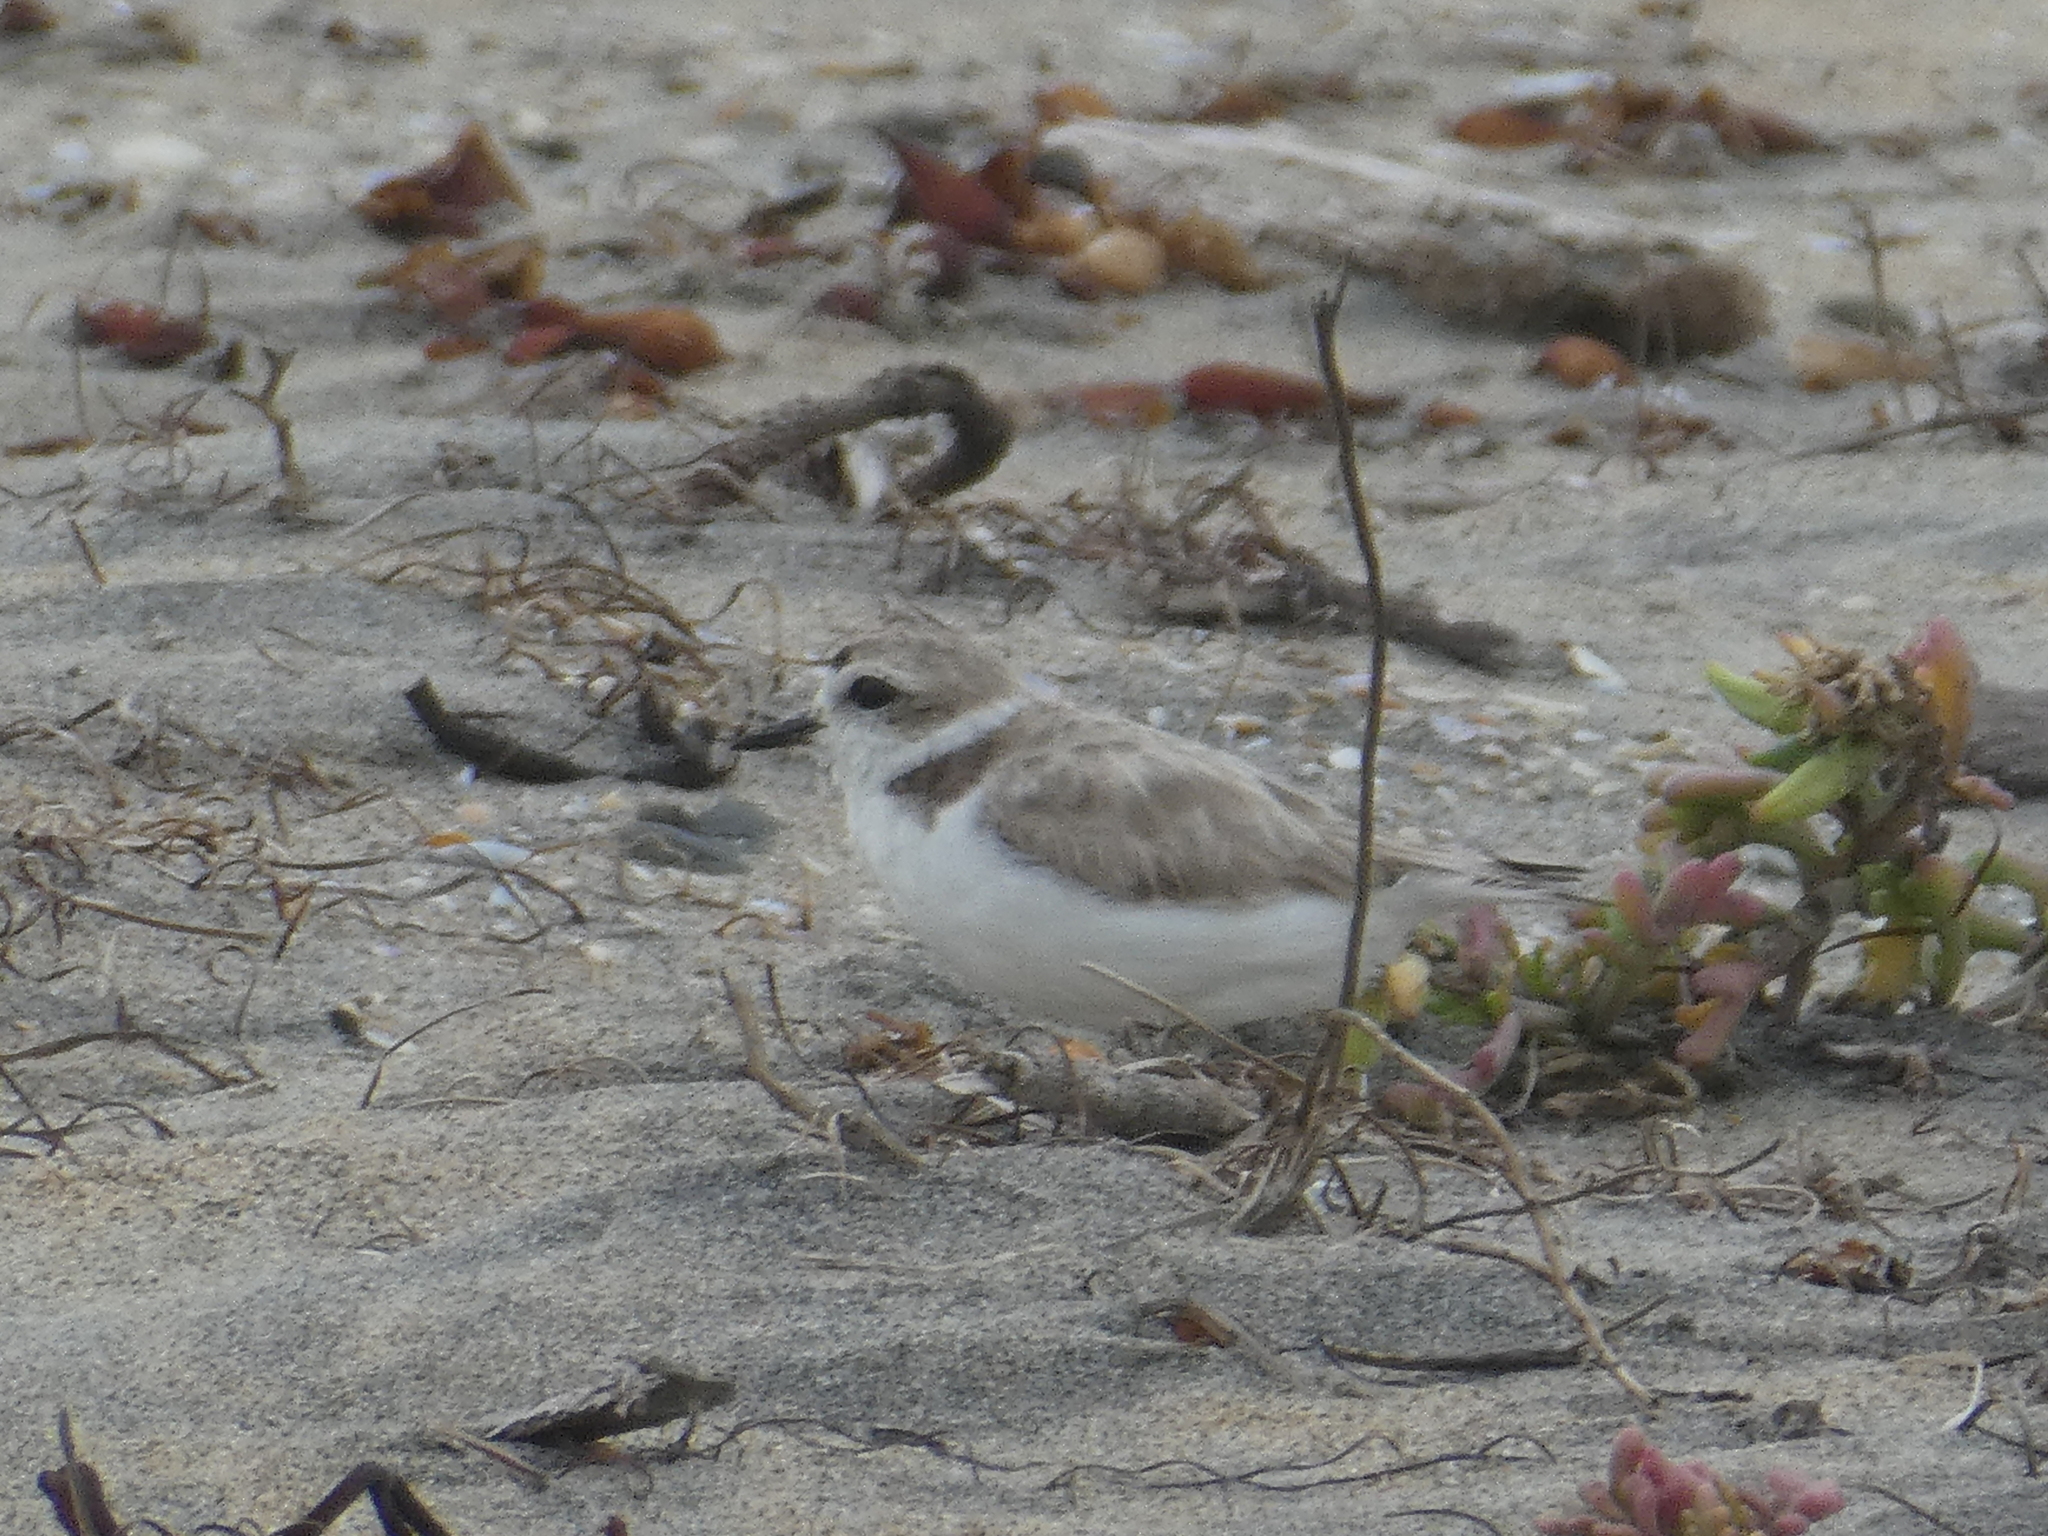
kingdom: Animalia
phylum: Chordata
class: Aves
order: Charadriiformes
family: Charadriidae
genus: Anarhynchus
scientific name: Anarhynchus
